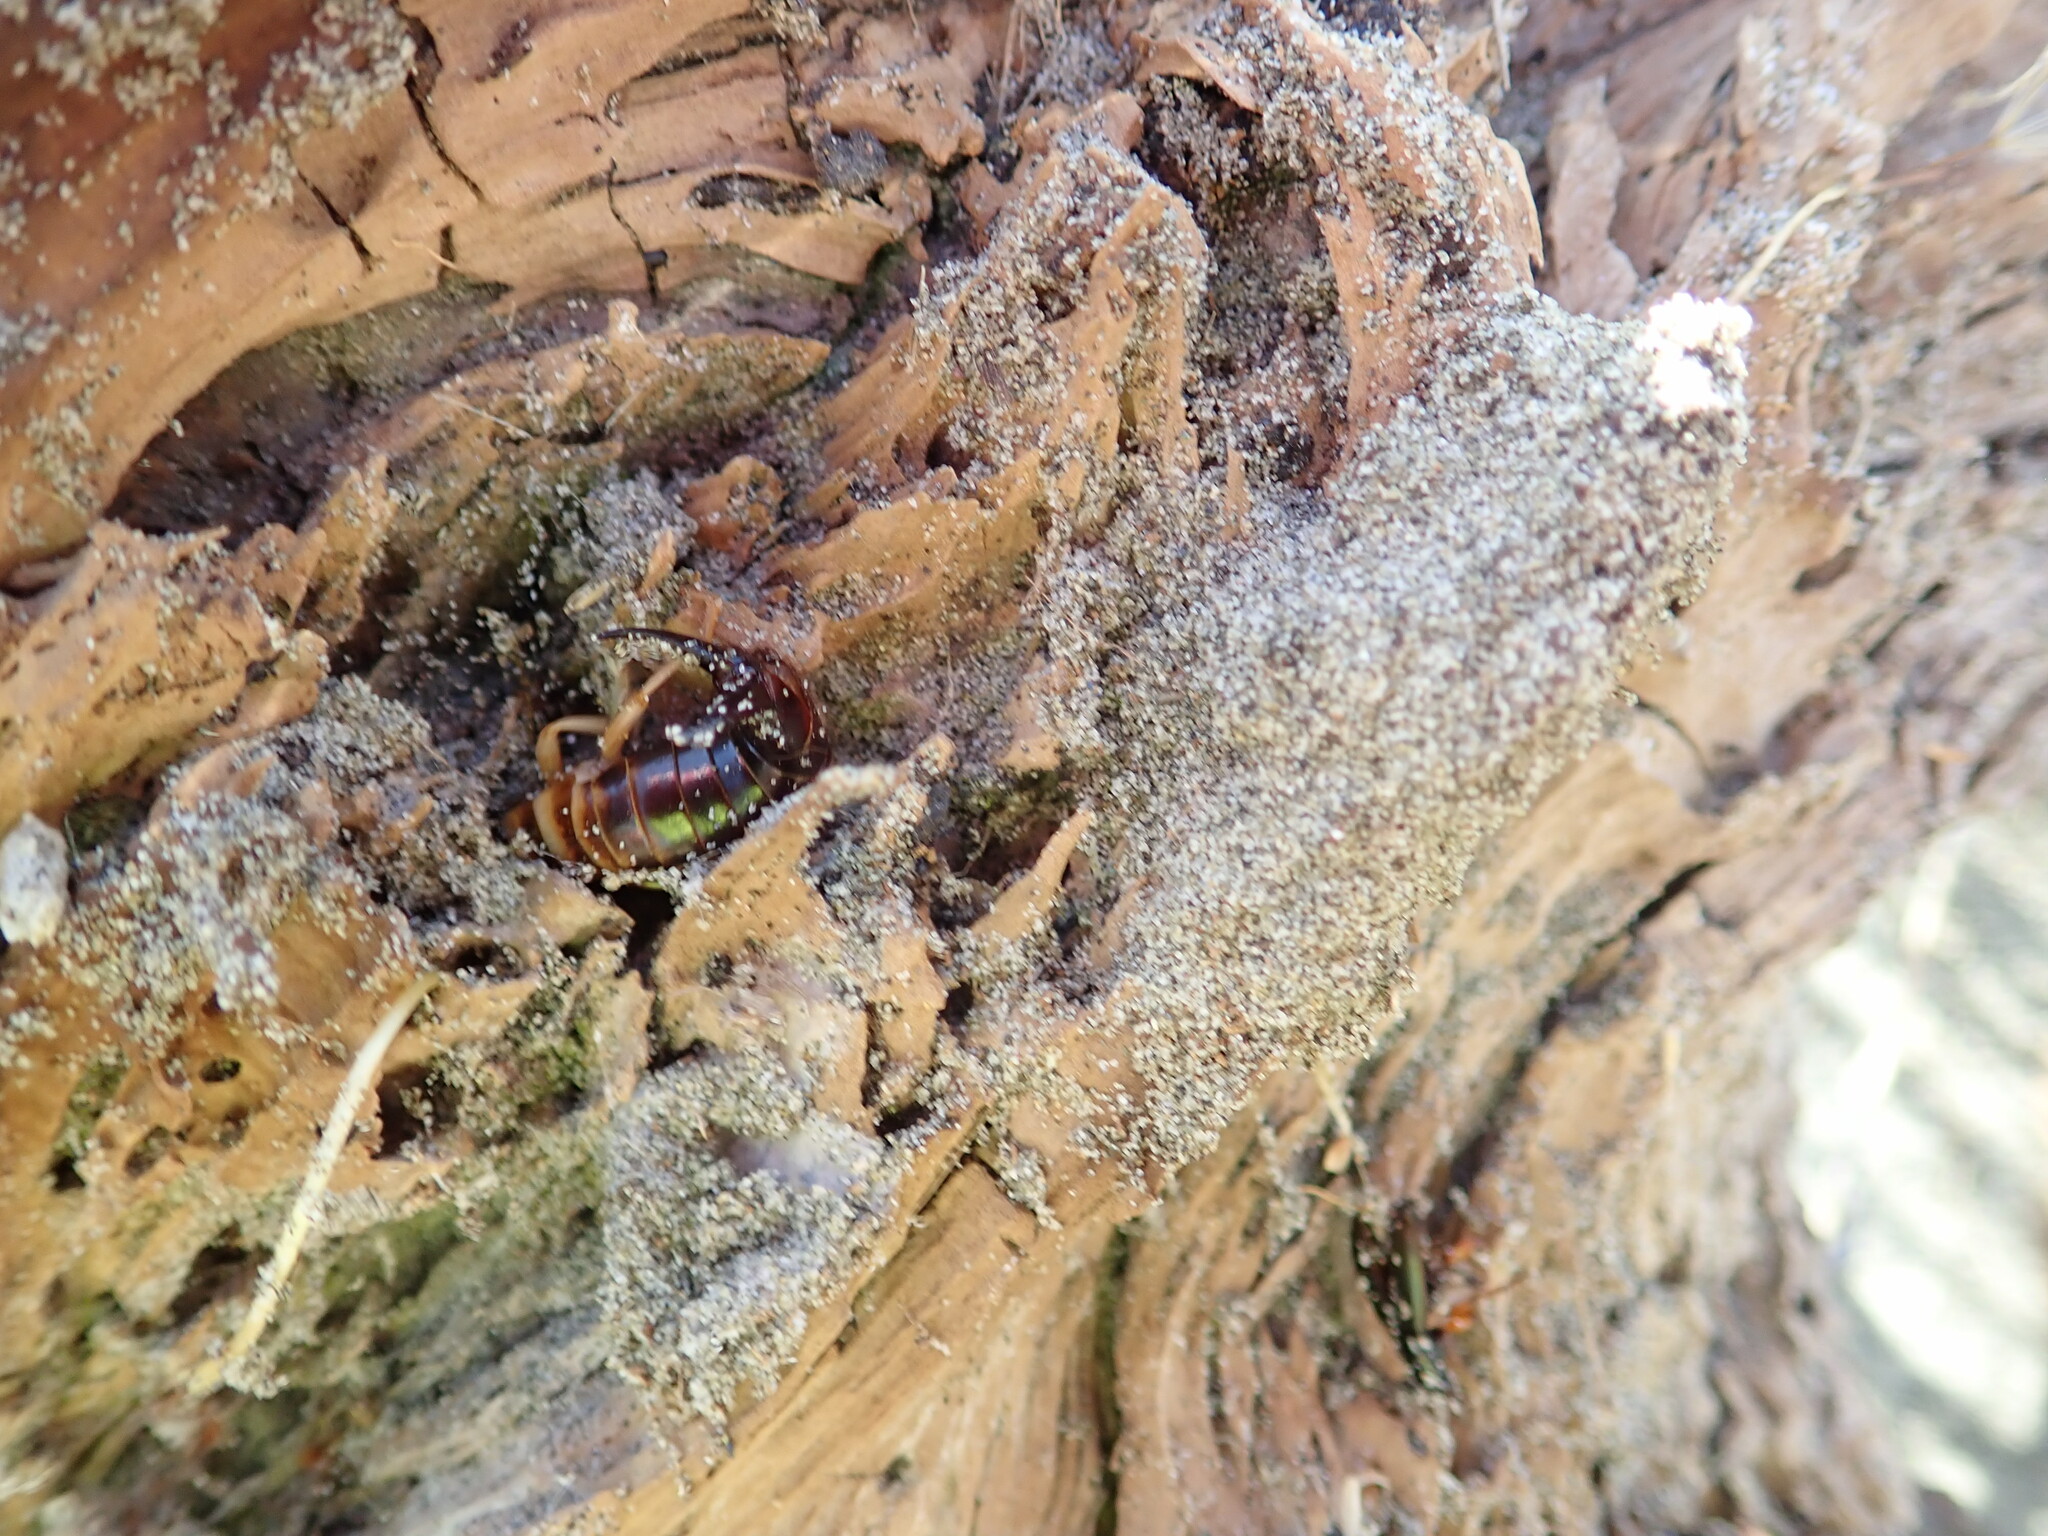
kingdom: Animalia
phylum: Arthropoda
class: Insecta
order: Dermaptera
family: Anisolabididae
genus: Anisolabis
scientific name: Anisolabis littorea
